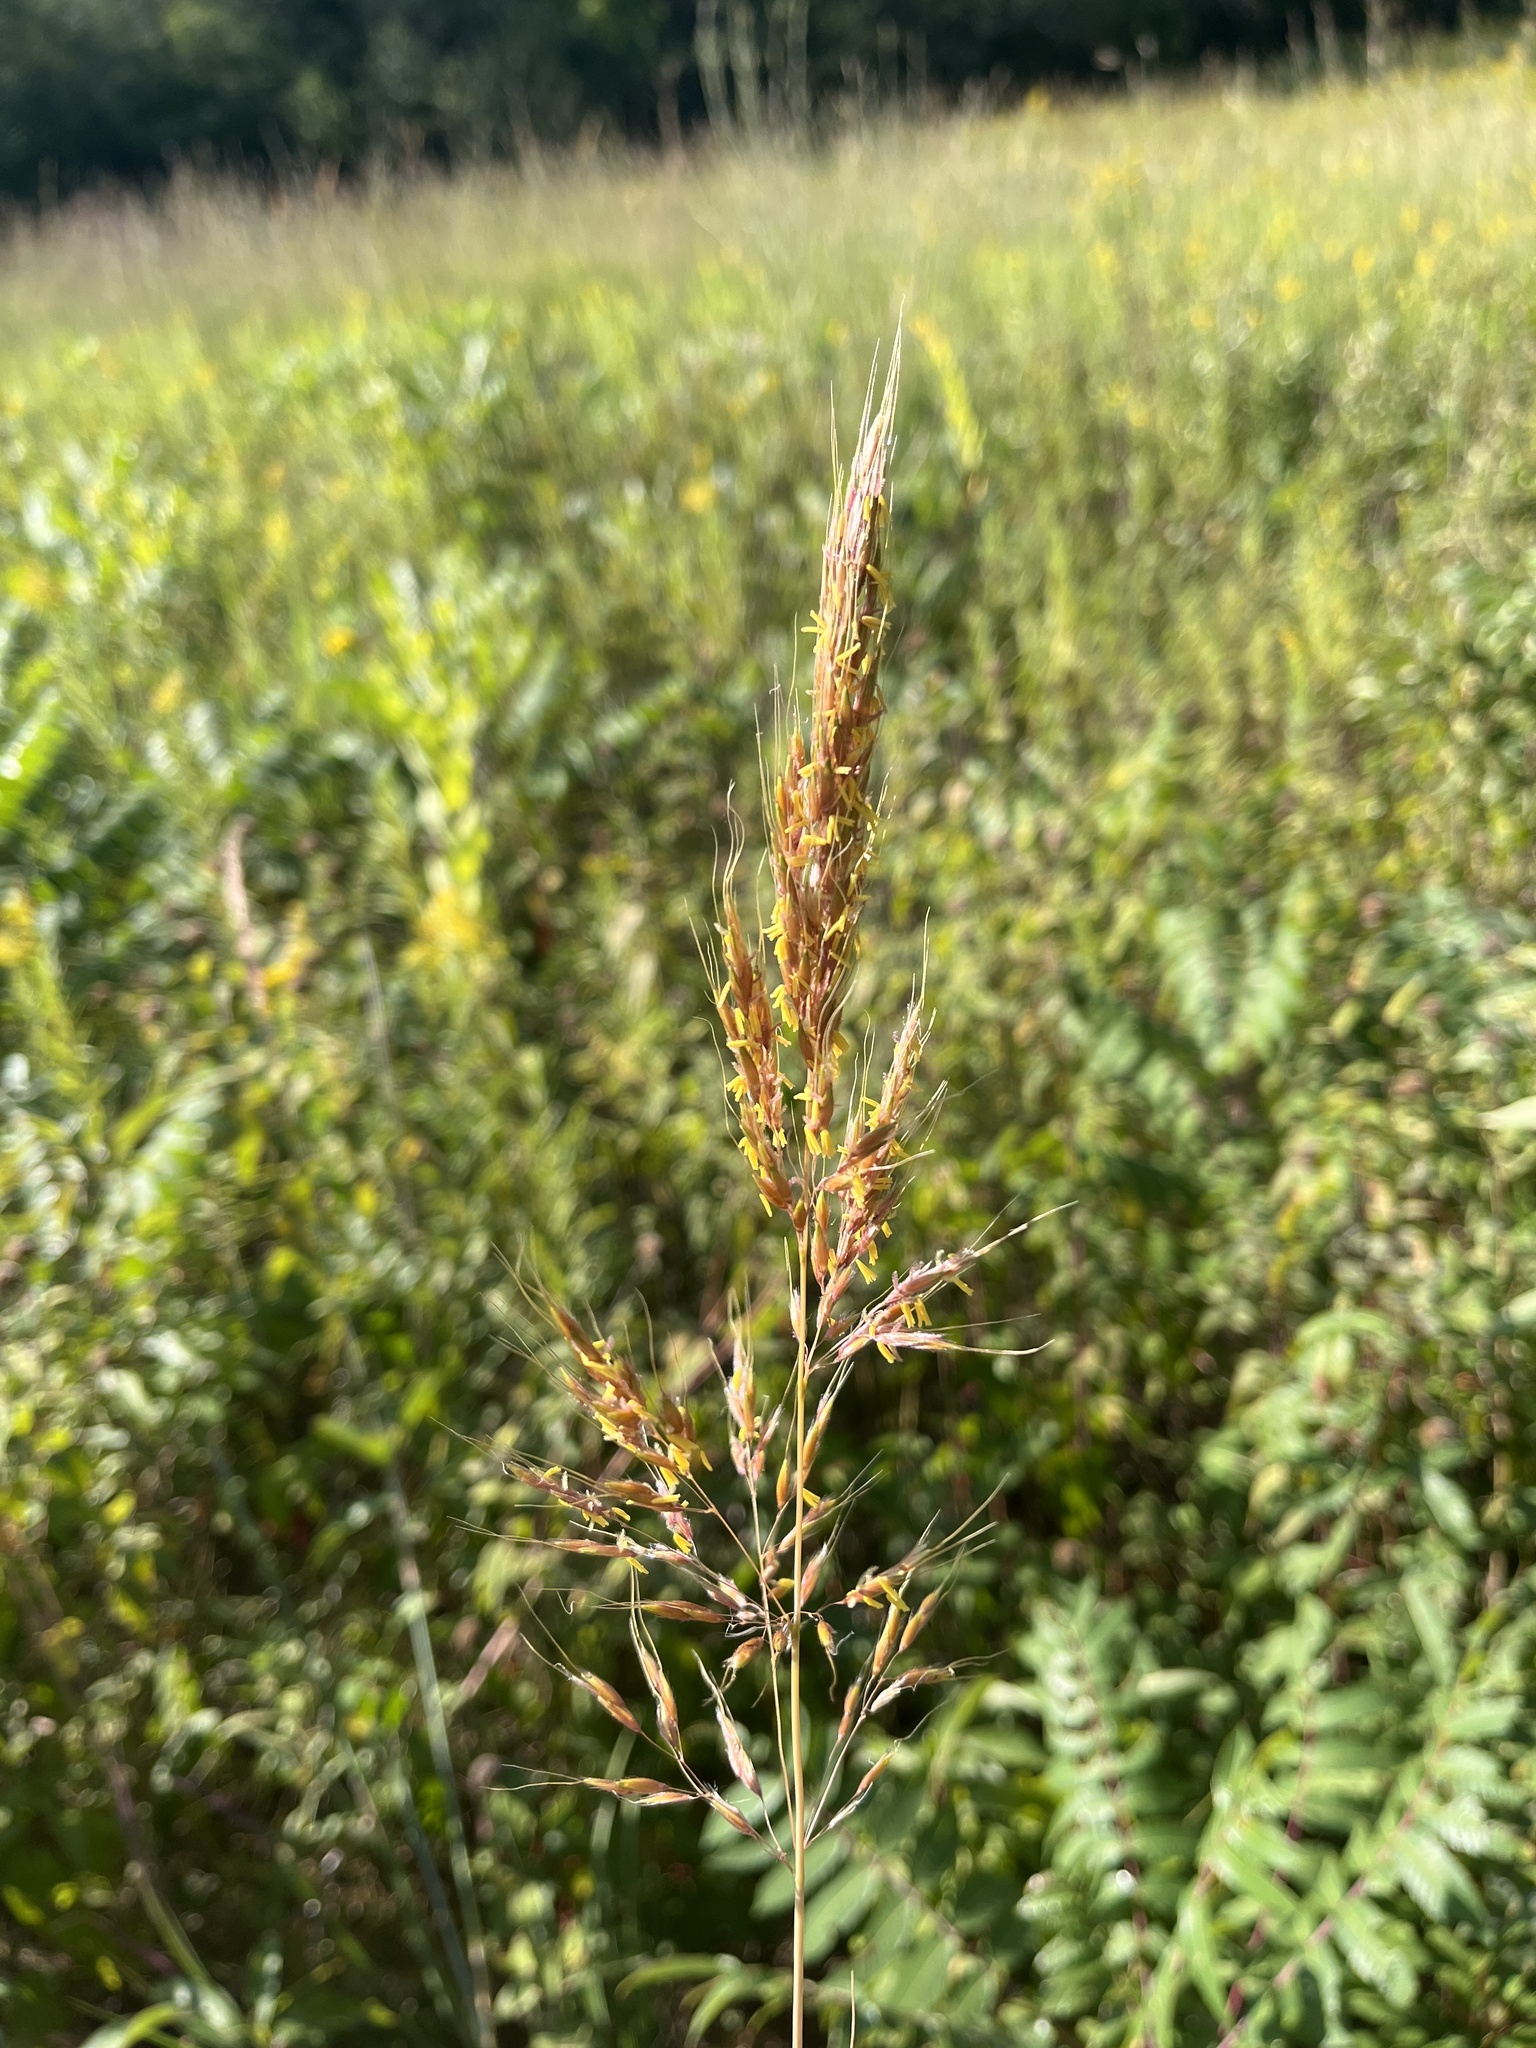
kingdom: Plantae
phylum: Tracheophyta
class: Liliopsida
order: Poales
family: Poaceae
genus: Sorghastrum
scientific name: Sorghastrum nutans
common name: Indian grass
